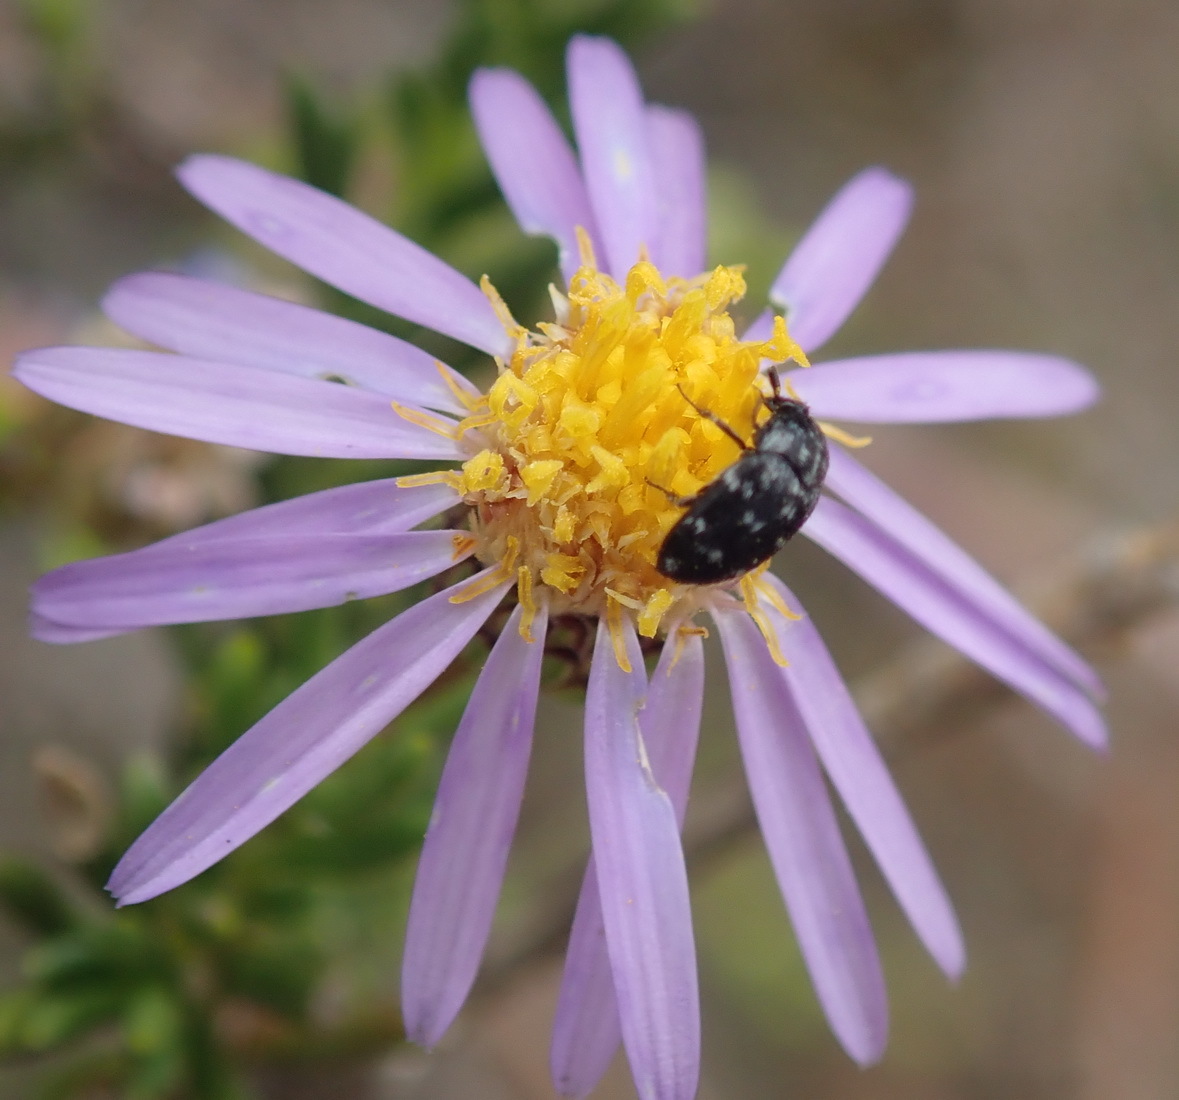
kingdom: Plantae
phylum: Tracheophyta
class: Magnoliopsida
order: Asterales
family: Asteraceae
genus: Felicia
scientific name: Felicia filifolia
